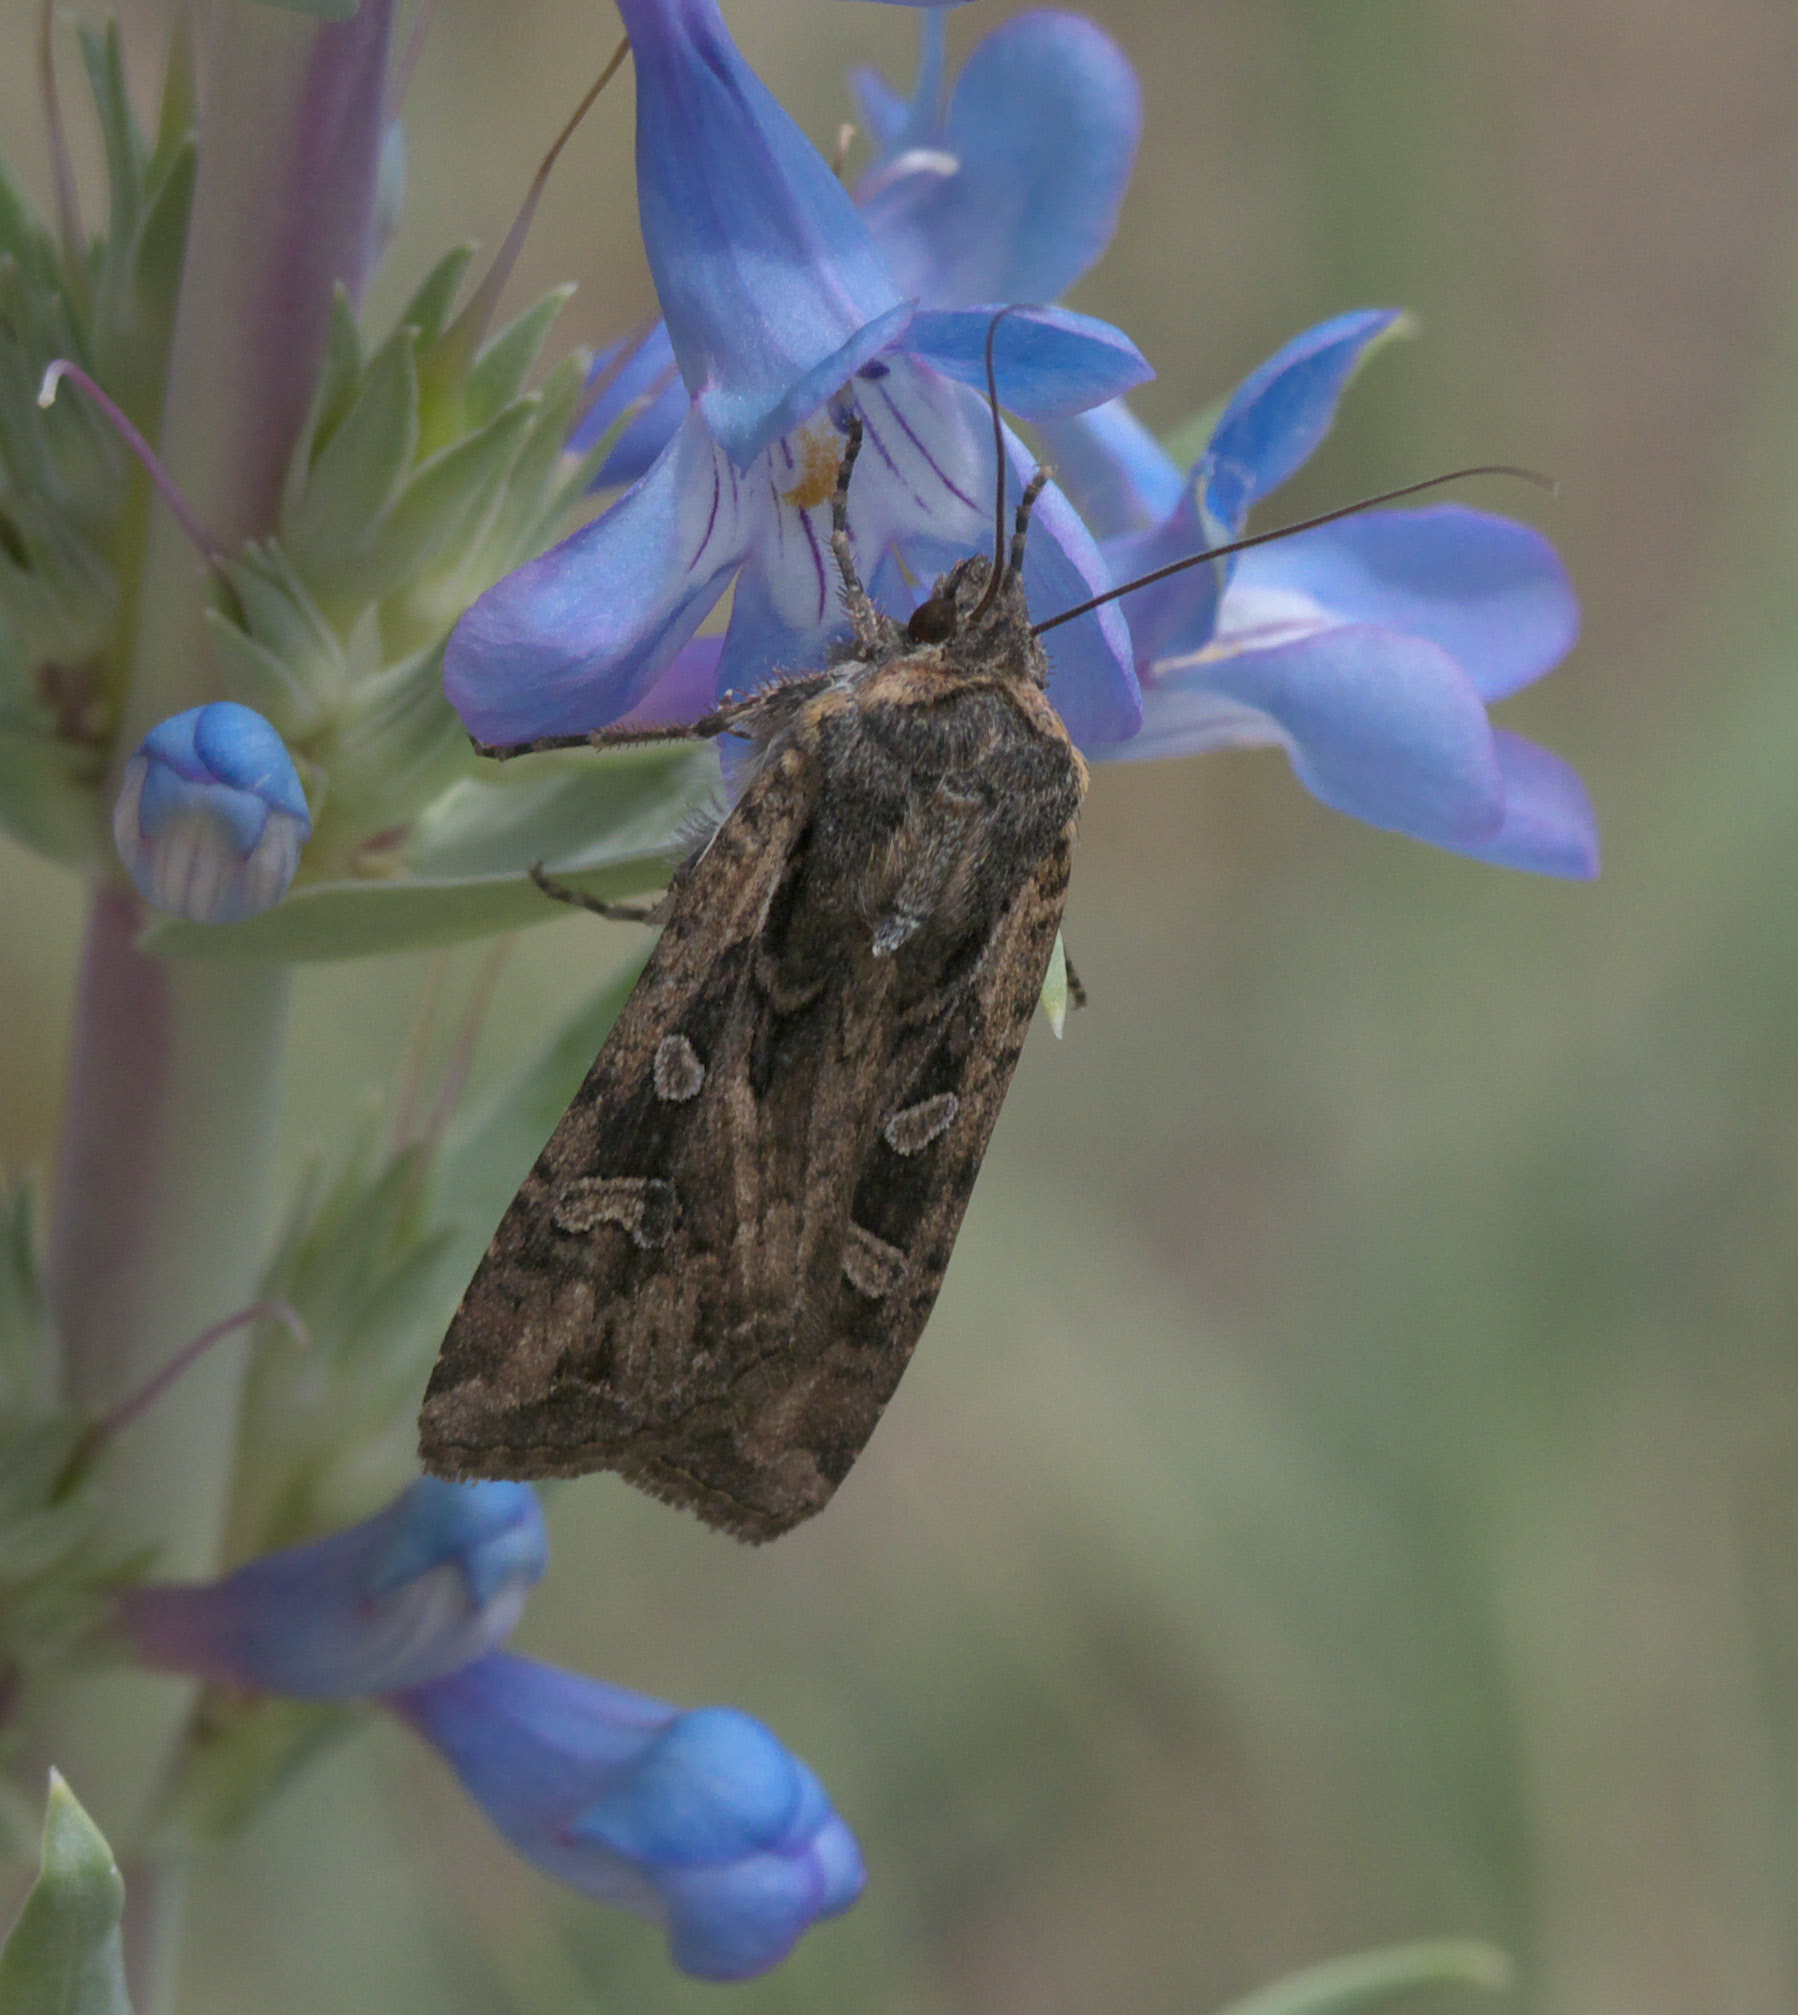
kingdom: Animalia
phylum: Arthropoda
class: Insecta
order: Lepidoptera
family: Noctuidae
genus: Euxoa
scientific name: Euxoa auxiliaris
